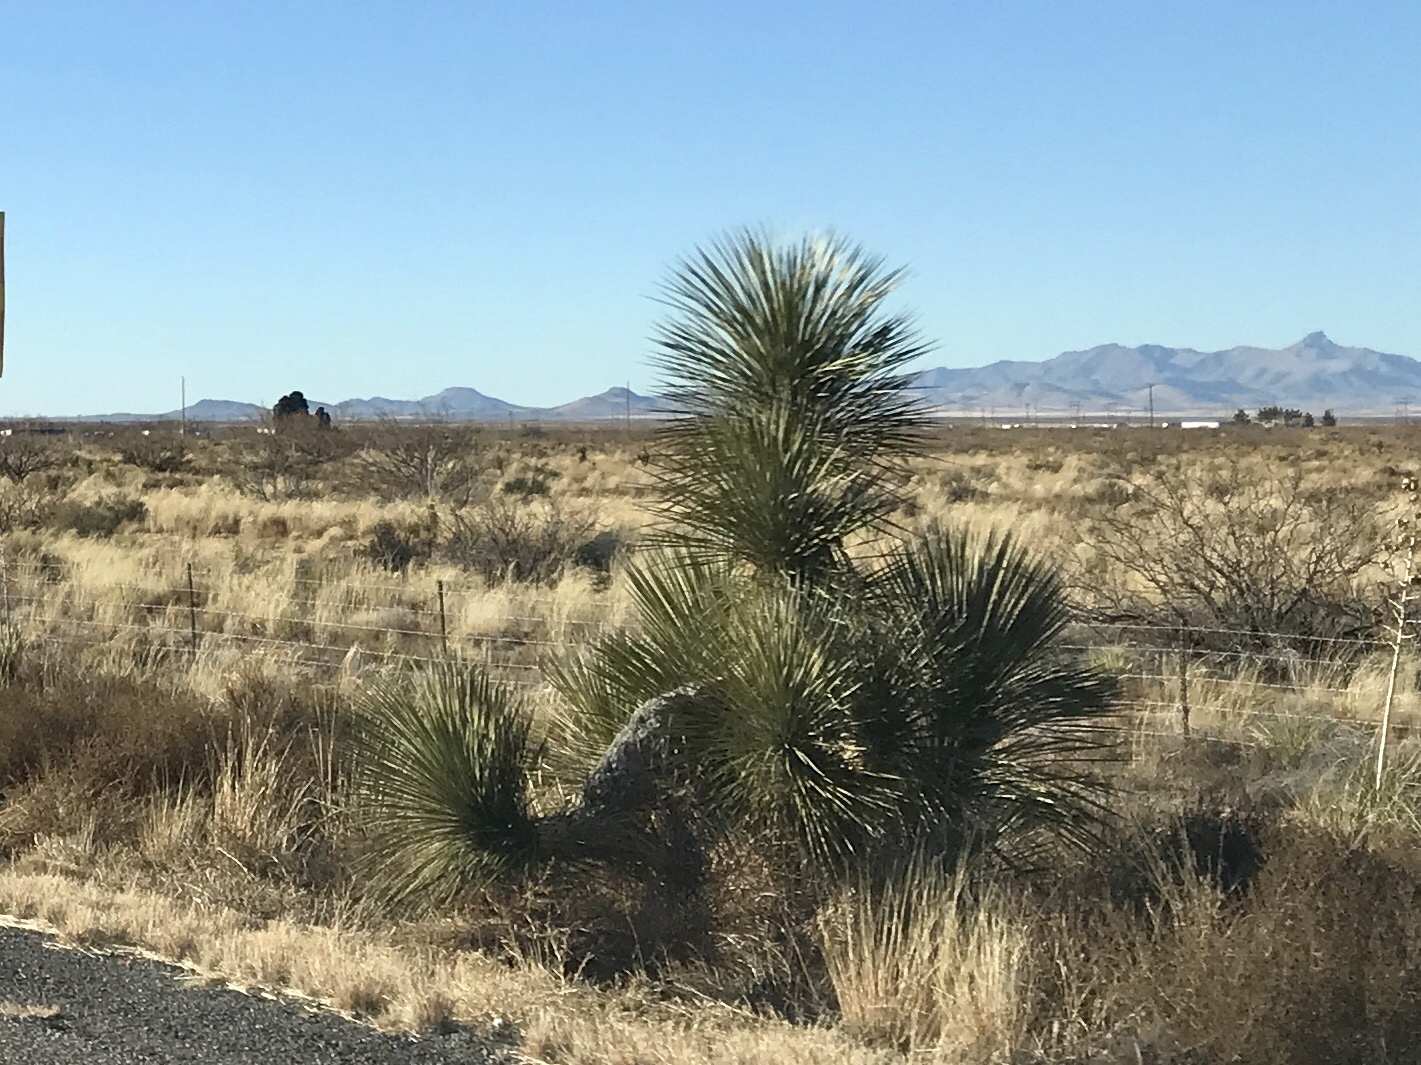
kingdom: Plantae
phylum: Tracheophyta
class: Liliopsida
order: Asparagales
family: Asparagaceae
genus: Yucca
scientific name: Yucca elata
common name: Palmella
